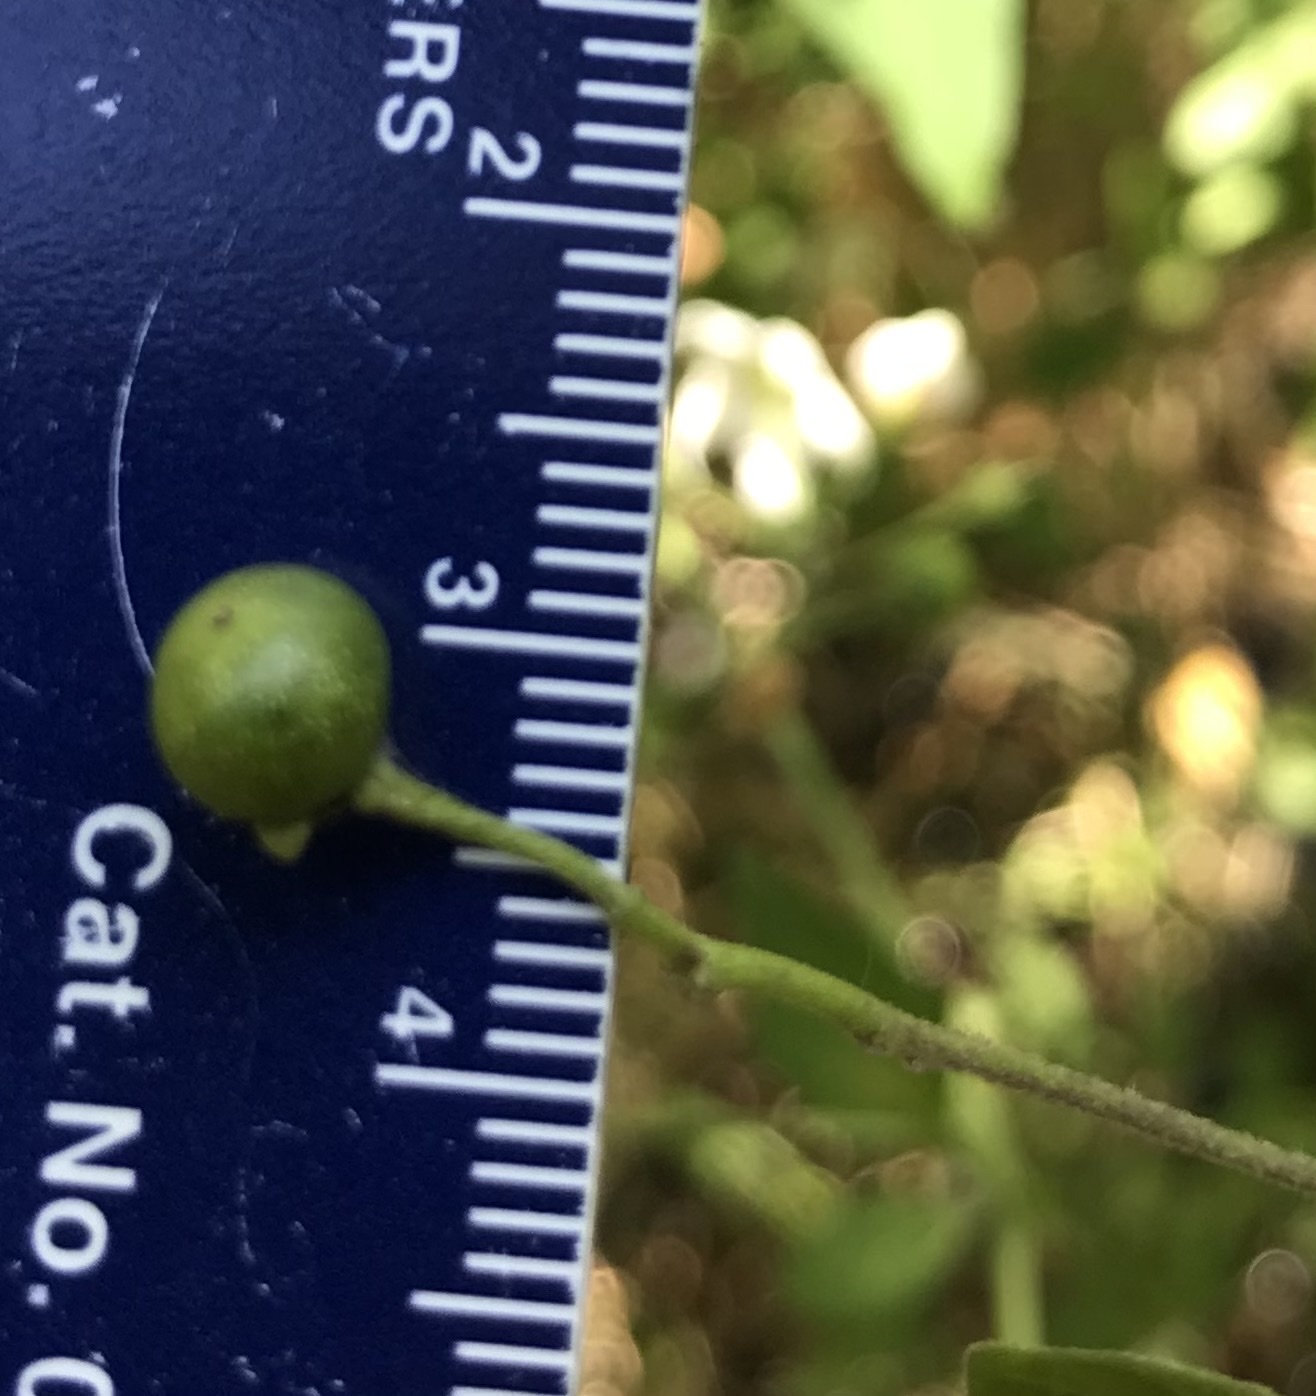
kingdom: Plantae
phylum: Tracheophyta
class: Magnoliopsida
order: Solanales
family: Solanaceae
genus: Solanum
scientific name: Solanum douglasii
